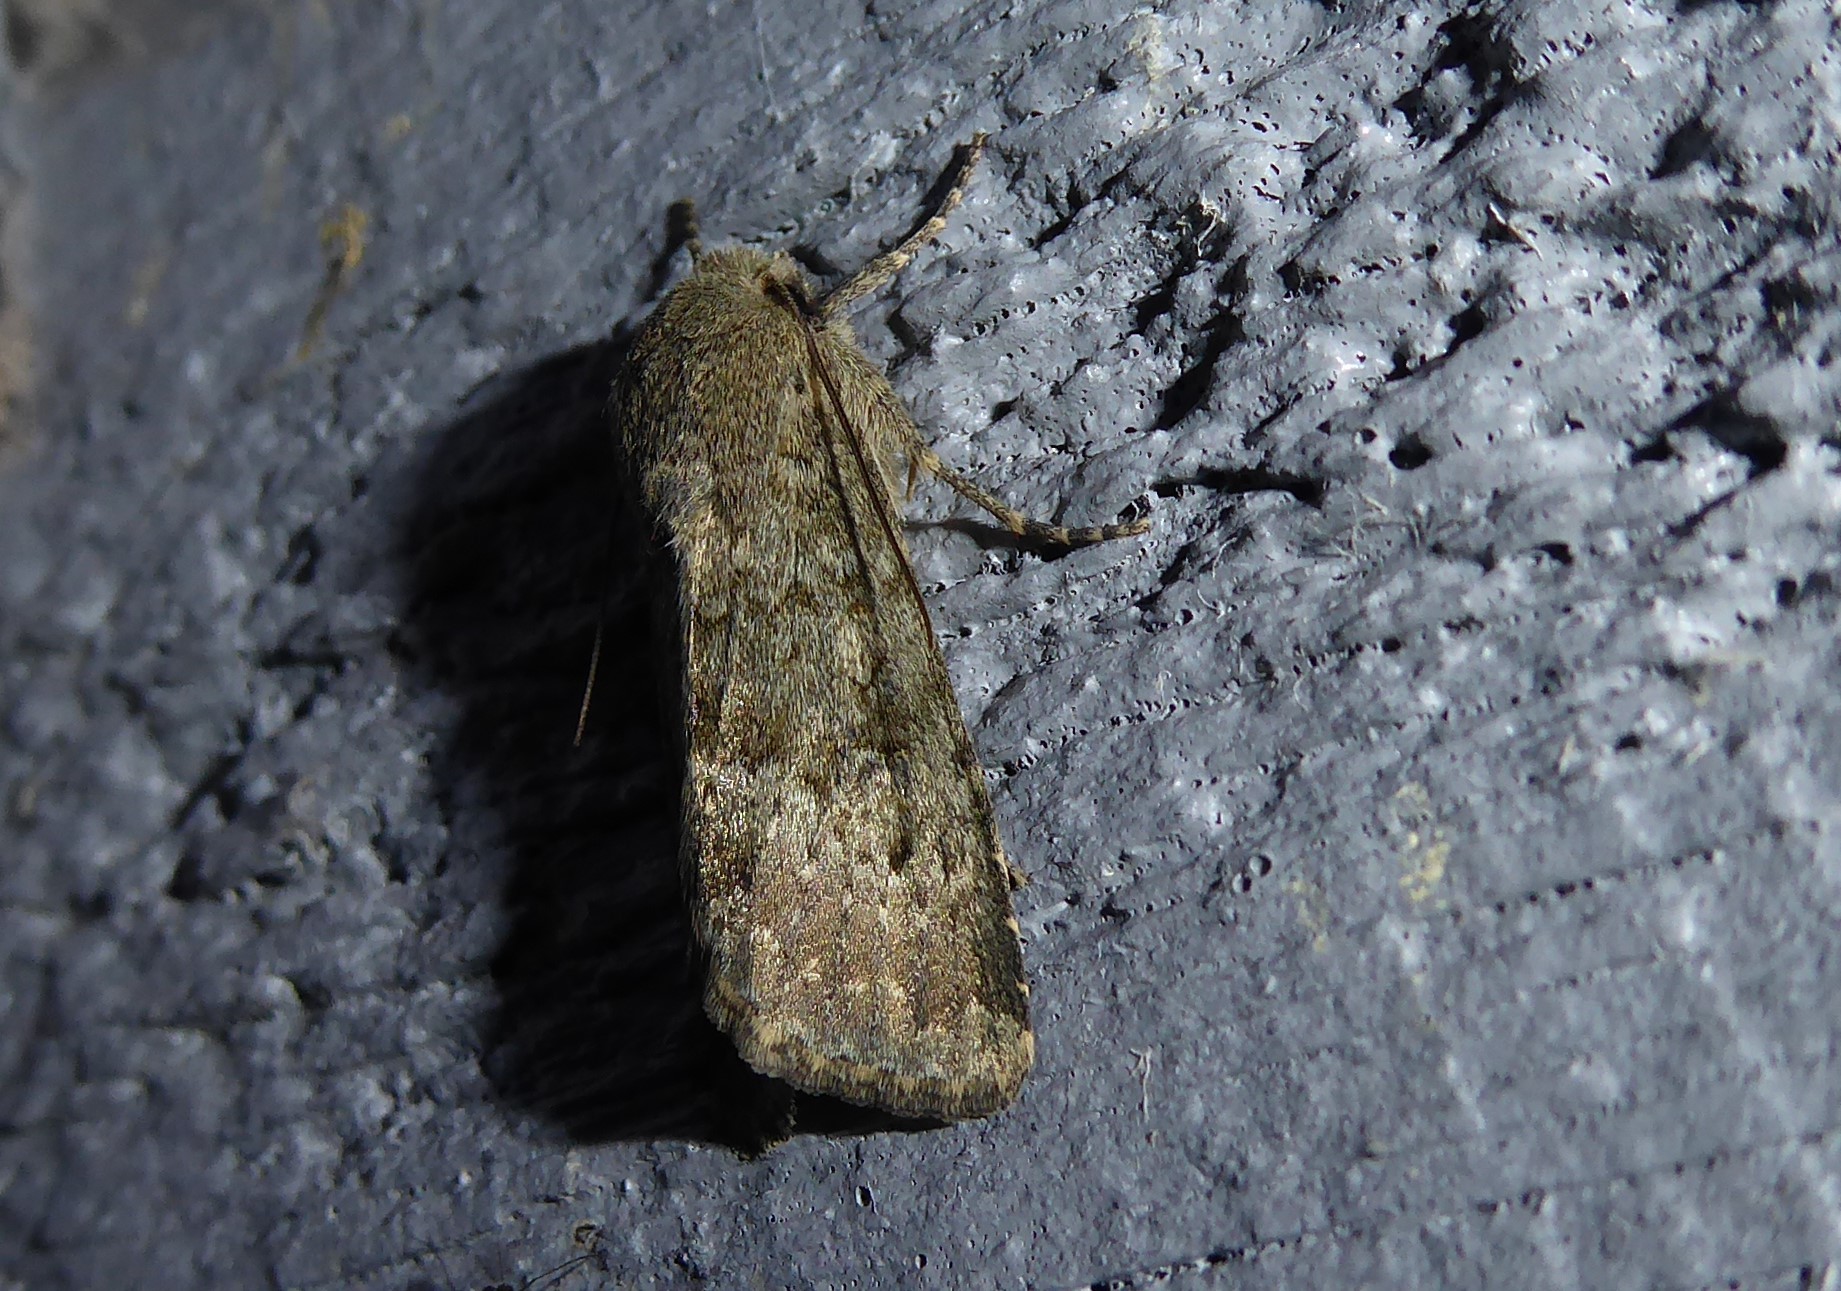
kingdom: Animalia
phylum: Arthropoda
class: Insecta
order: Lepidoptera
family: Noctuidae
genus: Ichneutica
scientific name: Ichneutica moderata
